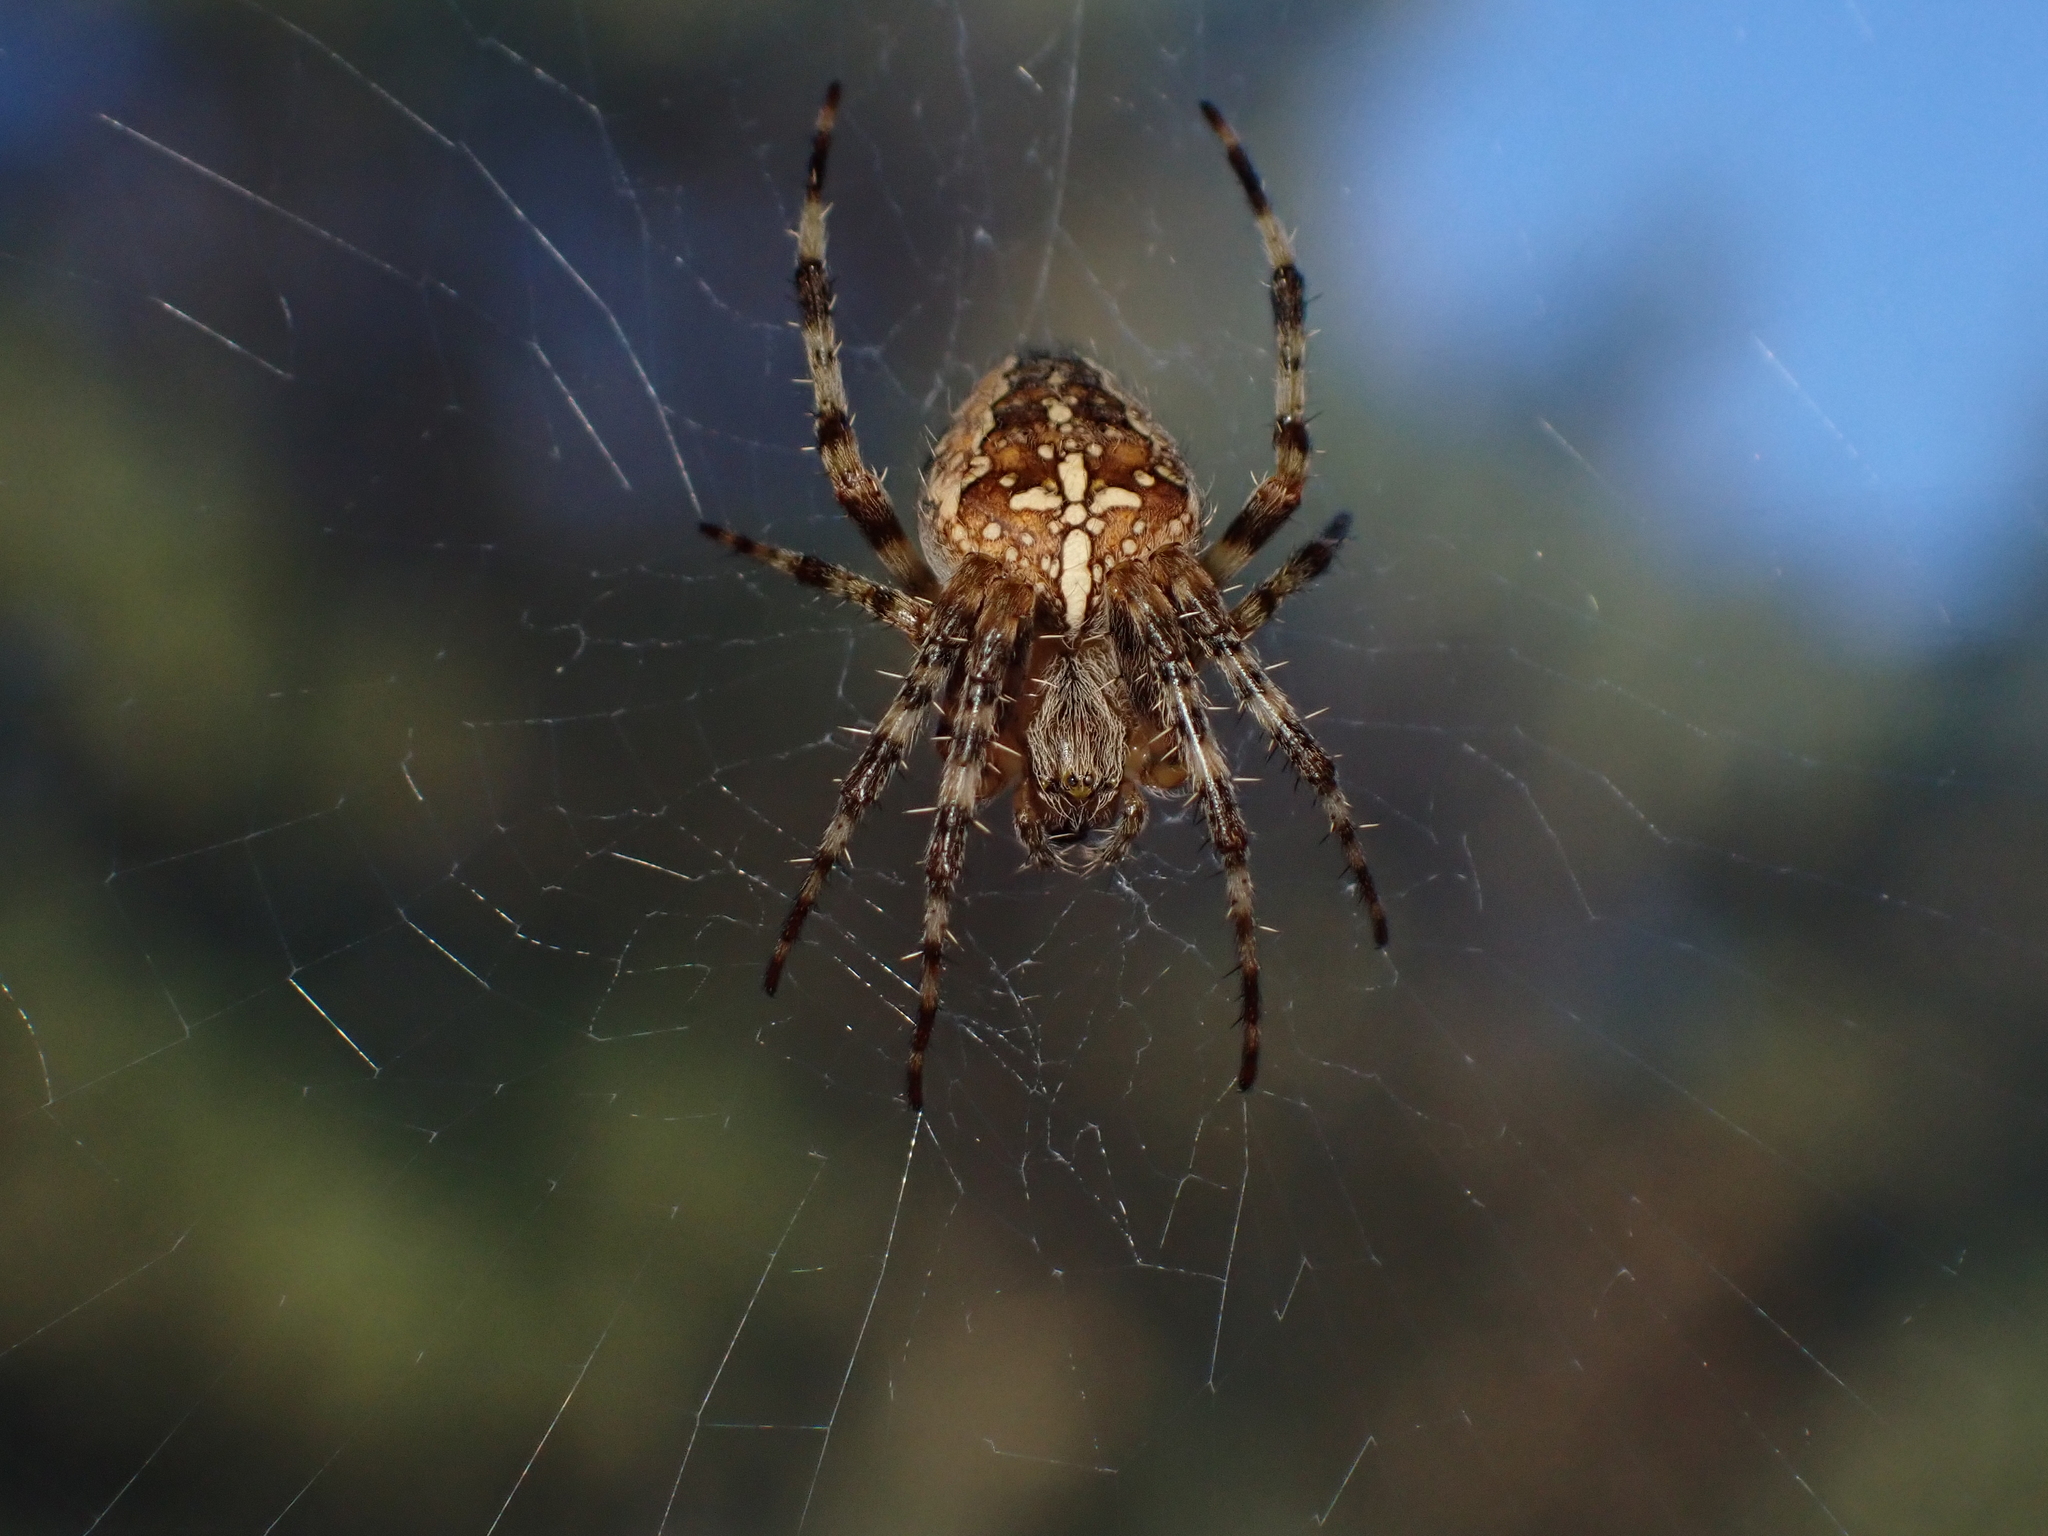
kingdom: Animalia
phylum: Arthropoda
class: Arachnida
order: Araneae
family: Araneidae
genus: Araneus
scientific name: Araneus diadematus
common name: Cross orbweaver
